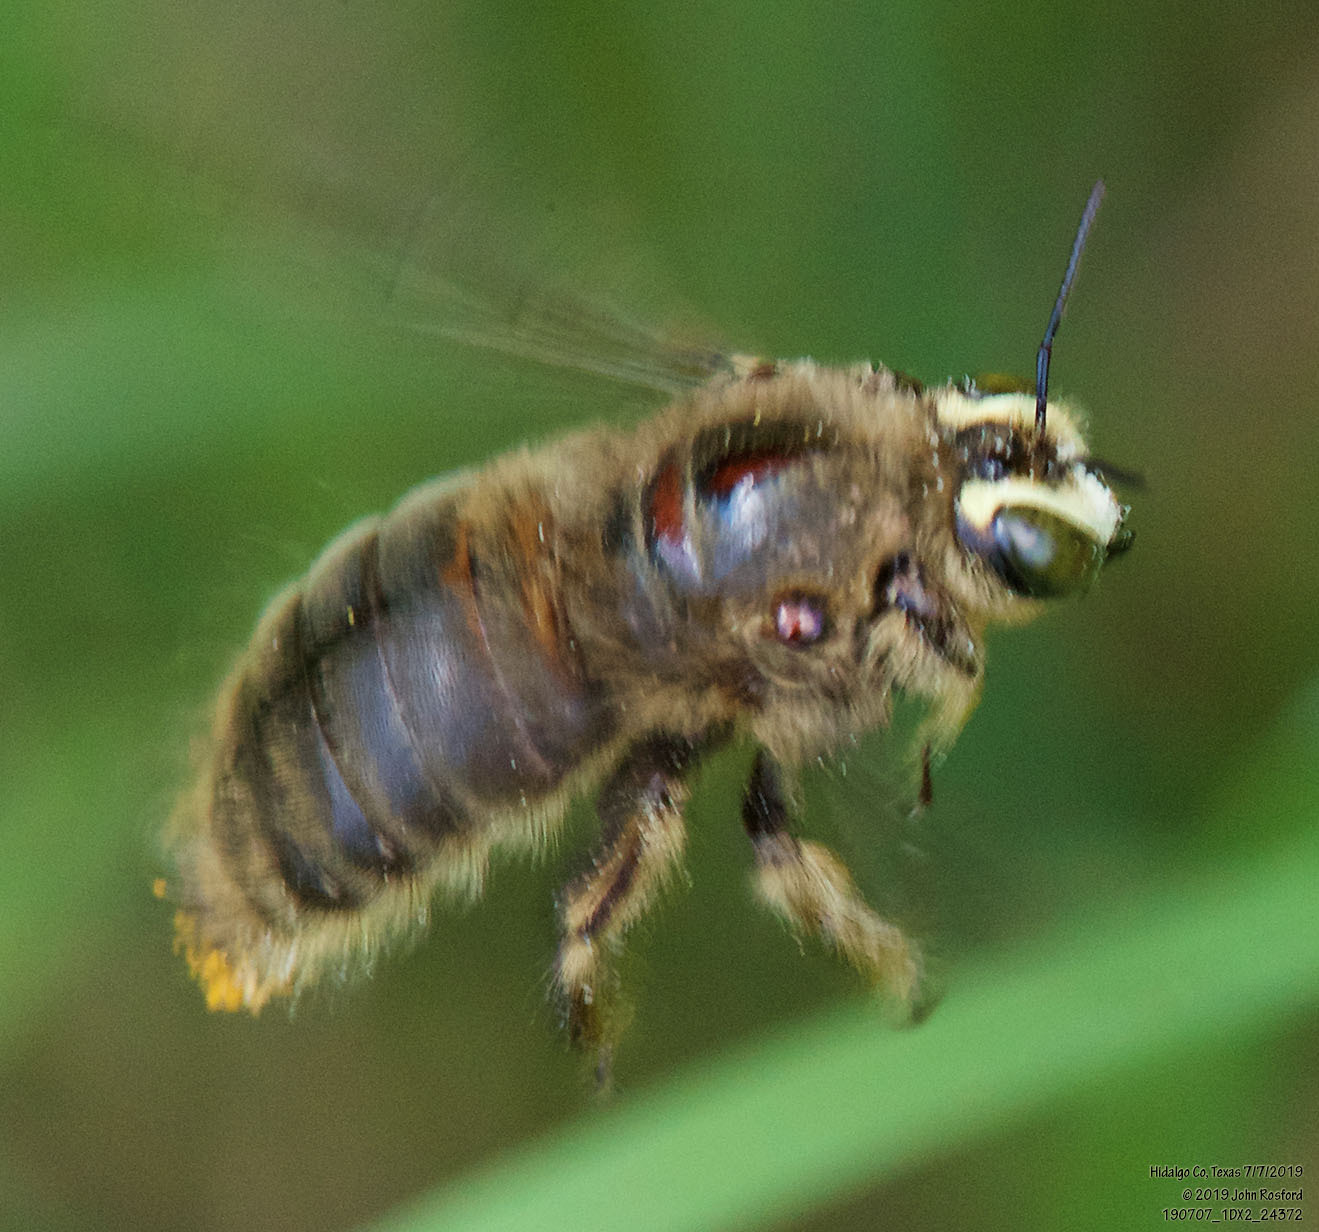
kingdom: Animalia
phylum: Arthropoda
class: Insecta
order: Hymenoptera
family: Apidae
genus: Xylocopa
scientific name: Xylocopa strandi
